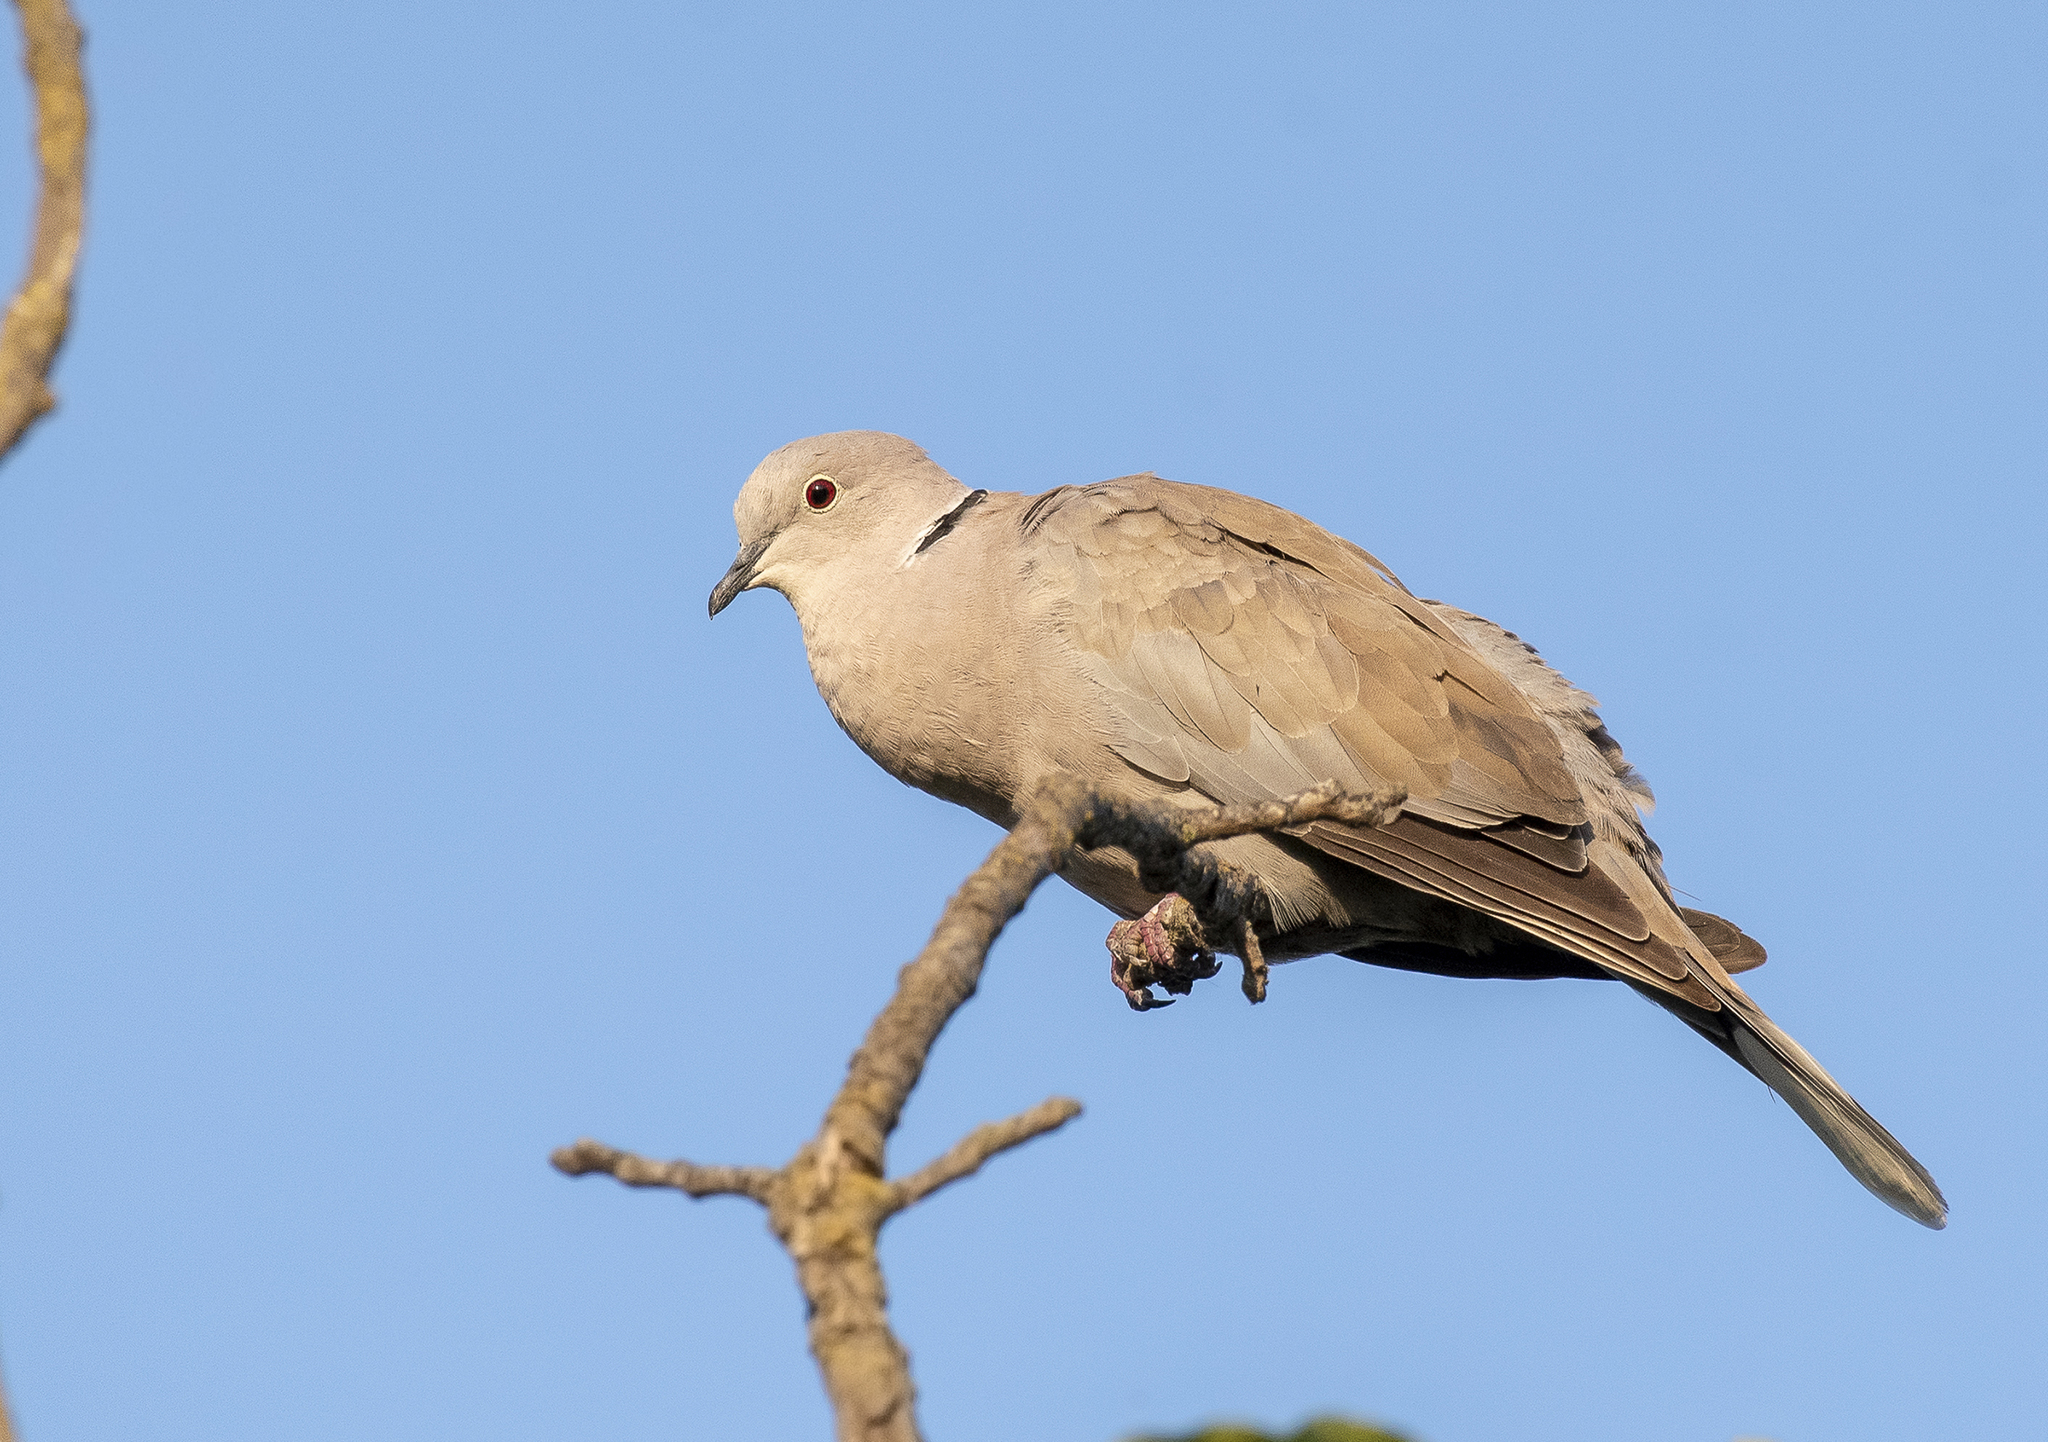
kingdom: Animalia
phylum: Chordata
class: Aves
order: Columbiformes
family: Columbidae
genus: Streptopelia
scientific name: Streptopelia decaocto
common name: Eurasian collared dove
